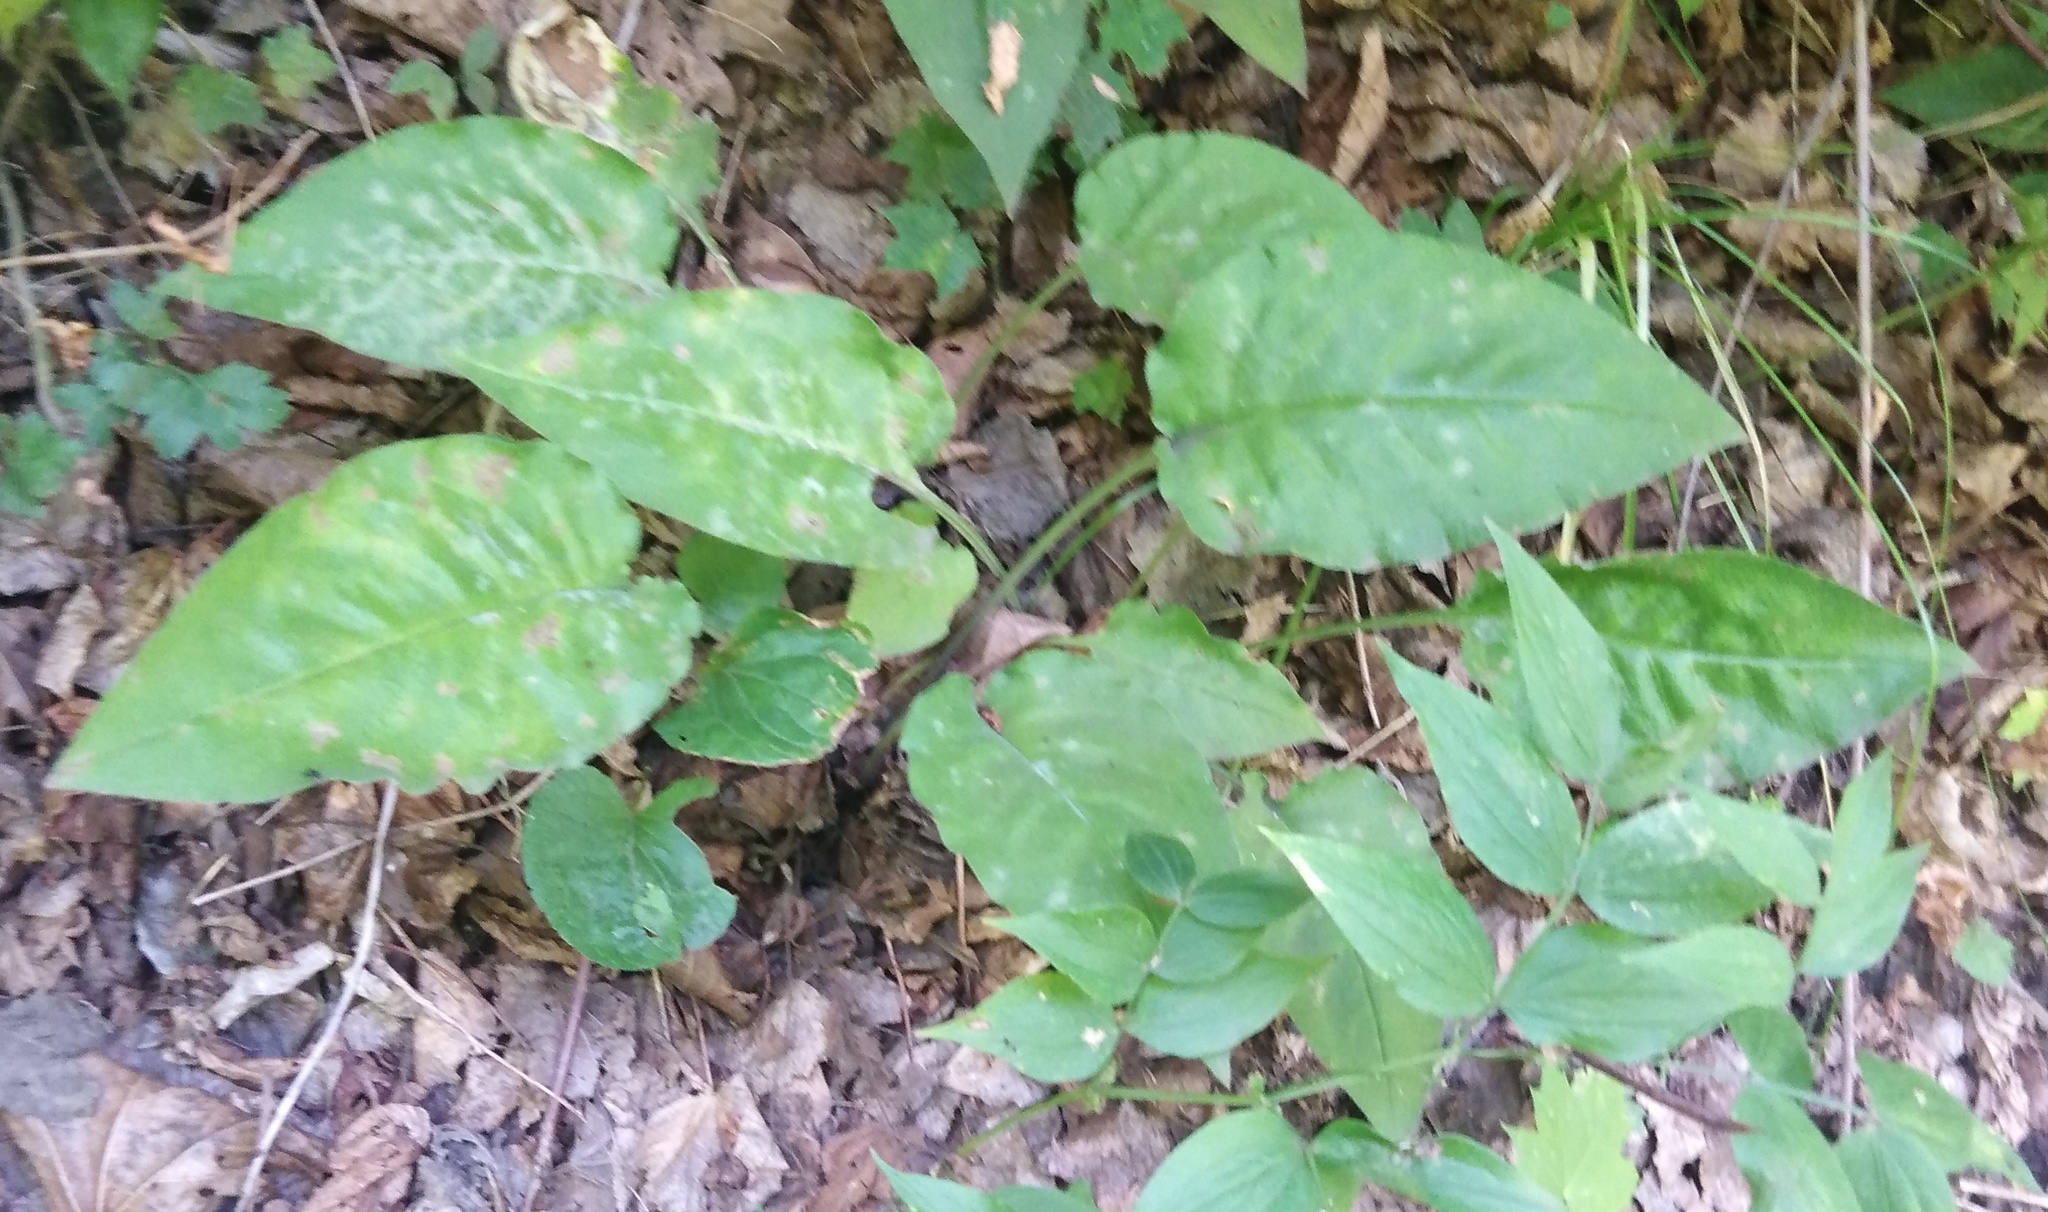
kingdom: Plantae
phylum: Tracheophyta
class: Magnoliopsida
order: Boraginales
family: Boraginaceae
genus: Pulmonaria
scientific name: Pulmonaria obscura
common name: Suffolk lungwort
